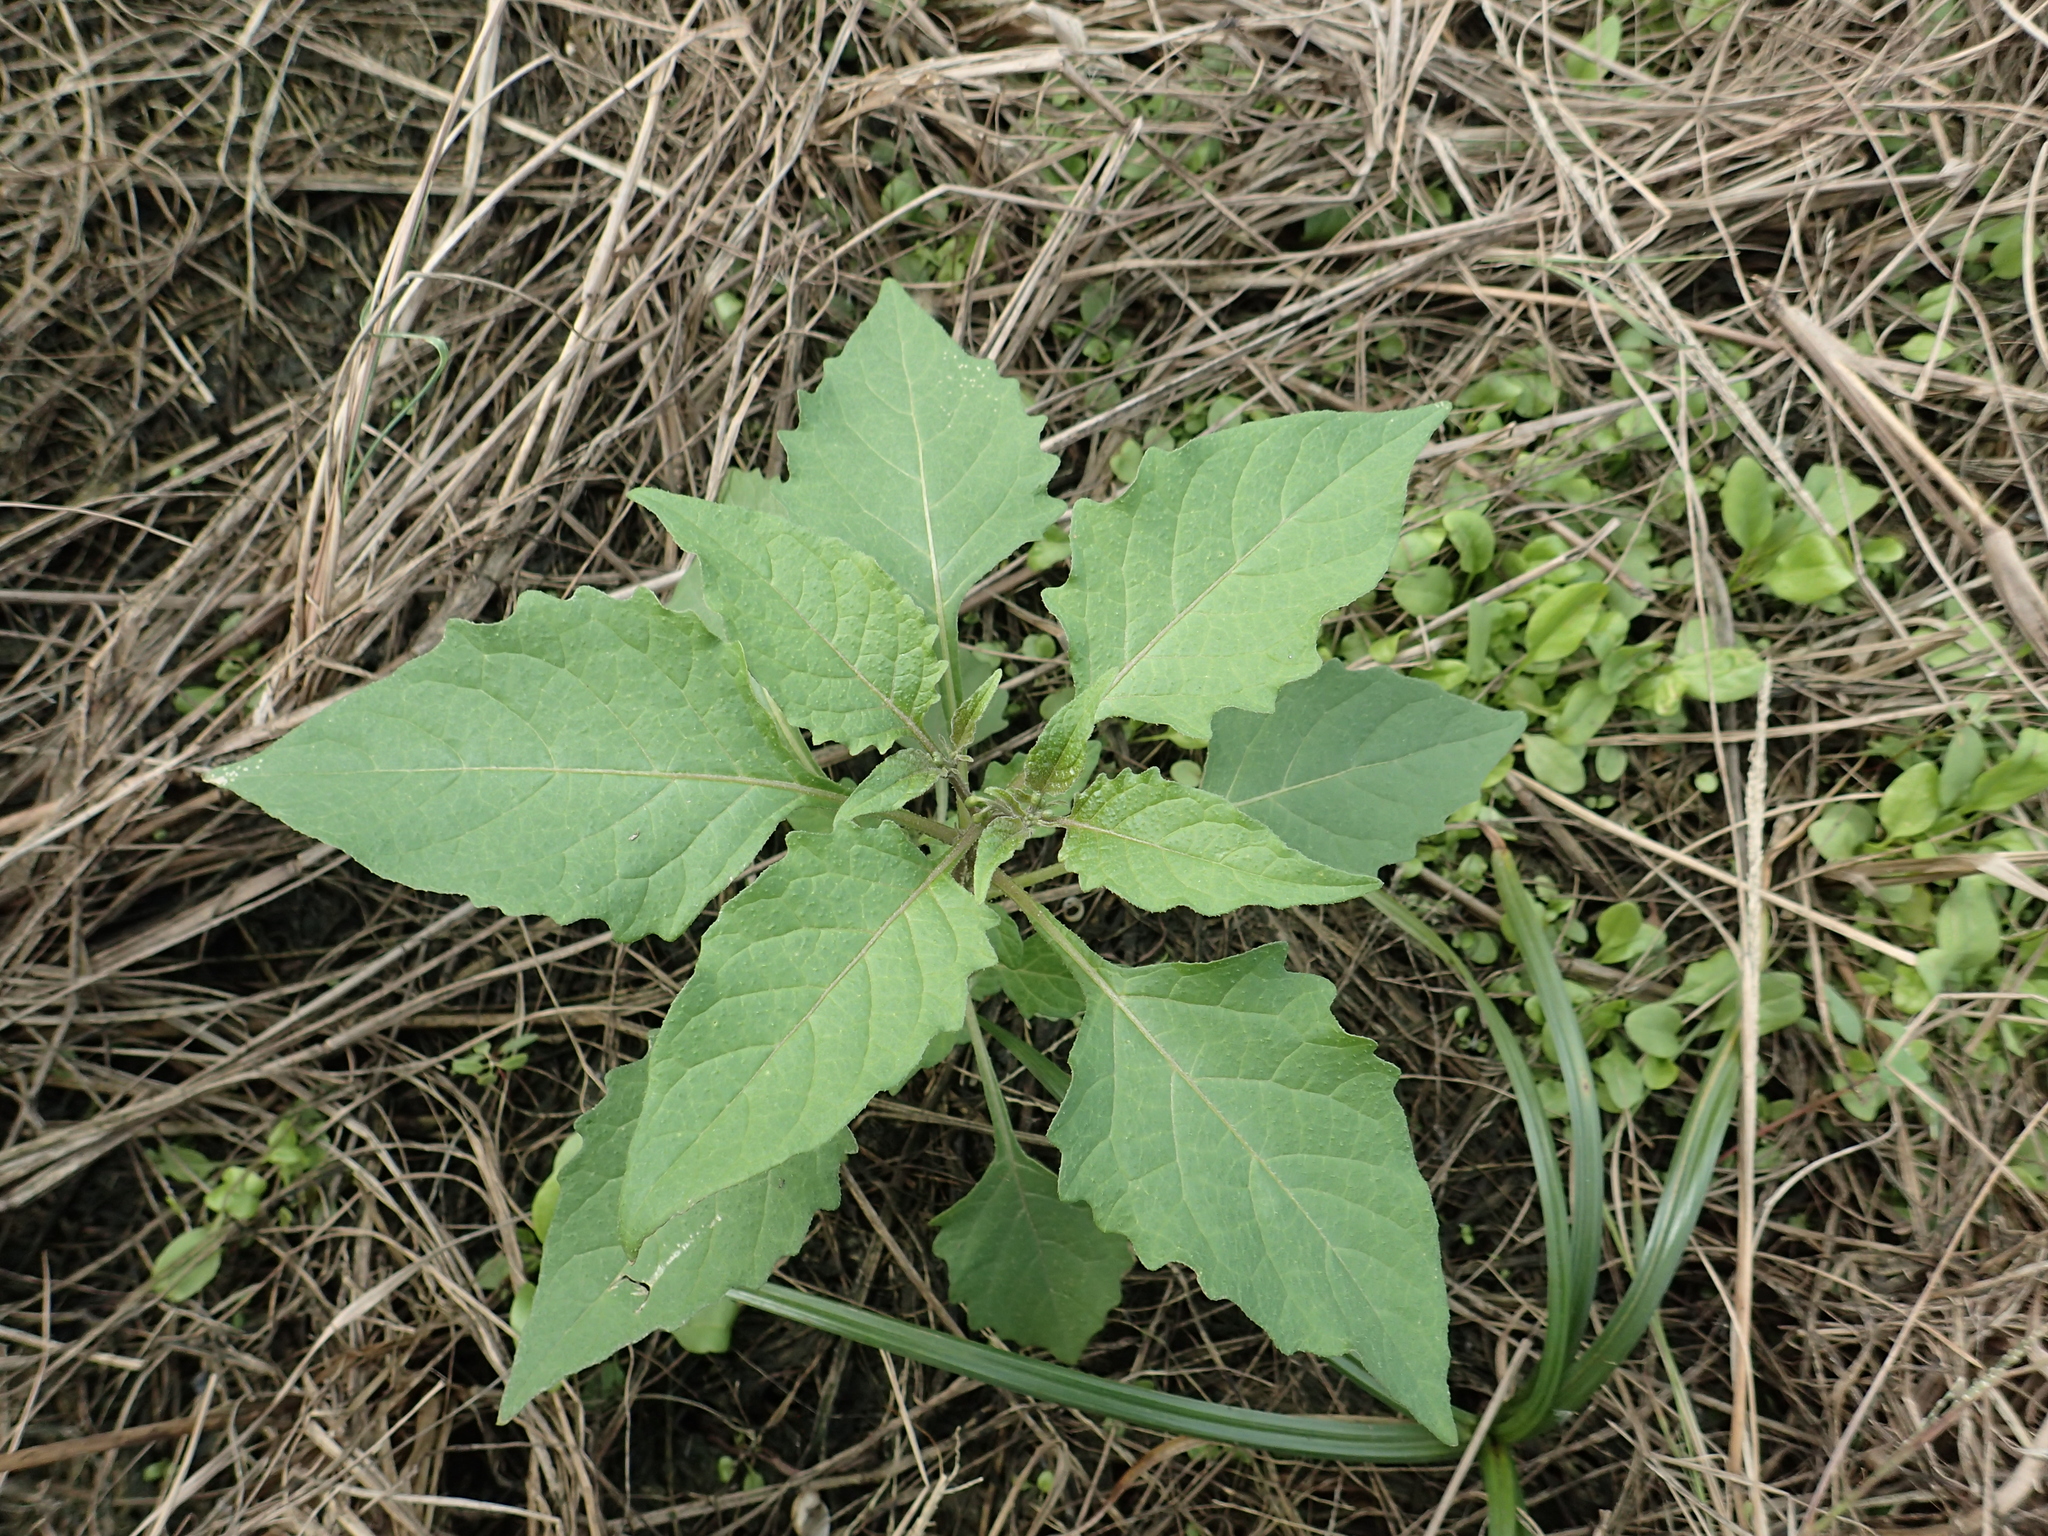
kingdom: Plantae
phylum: Tracheophyta
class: Magnoliopsida
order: Solanales
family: Solanaceae
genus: Physalis
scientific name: Physalis angulata
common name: Angular winter-cherry
